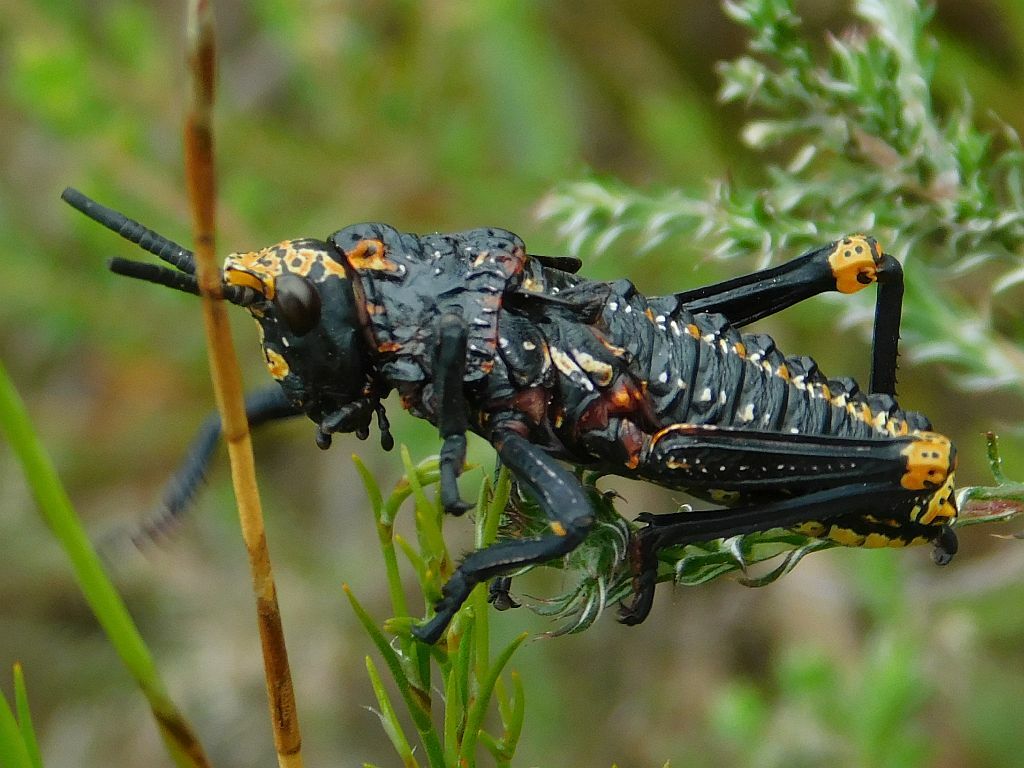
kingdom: Animalia
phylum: Arthropoda
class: Insecta
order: Orthoptera
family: Pyrgomorphidae
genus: Dictyophorus
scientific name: Dictyophorus spumans
